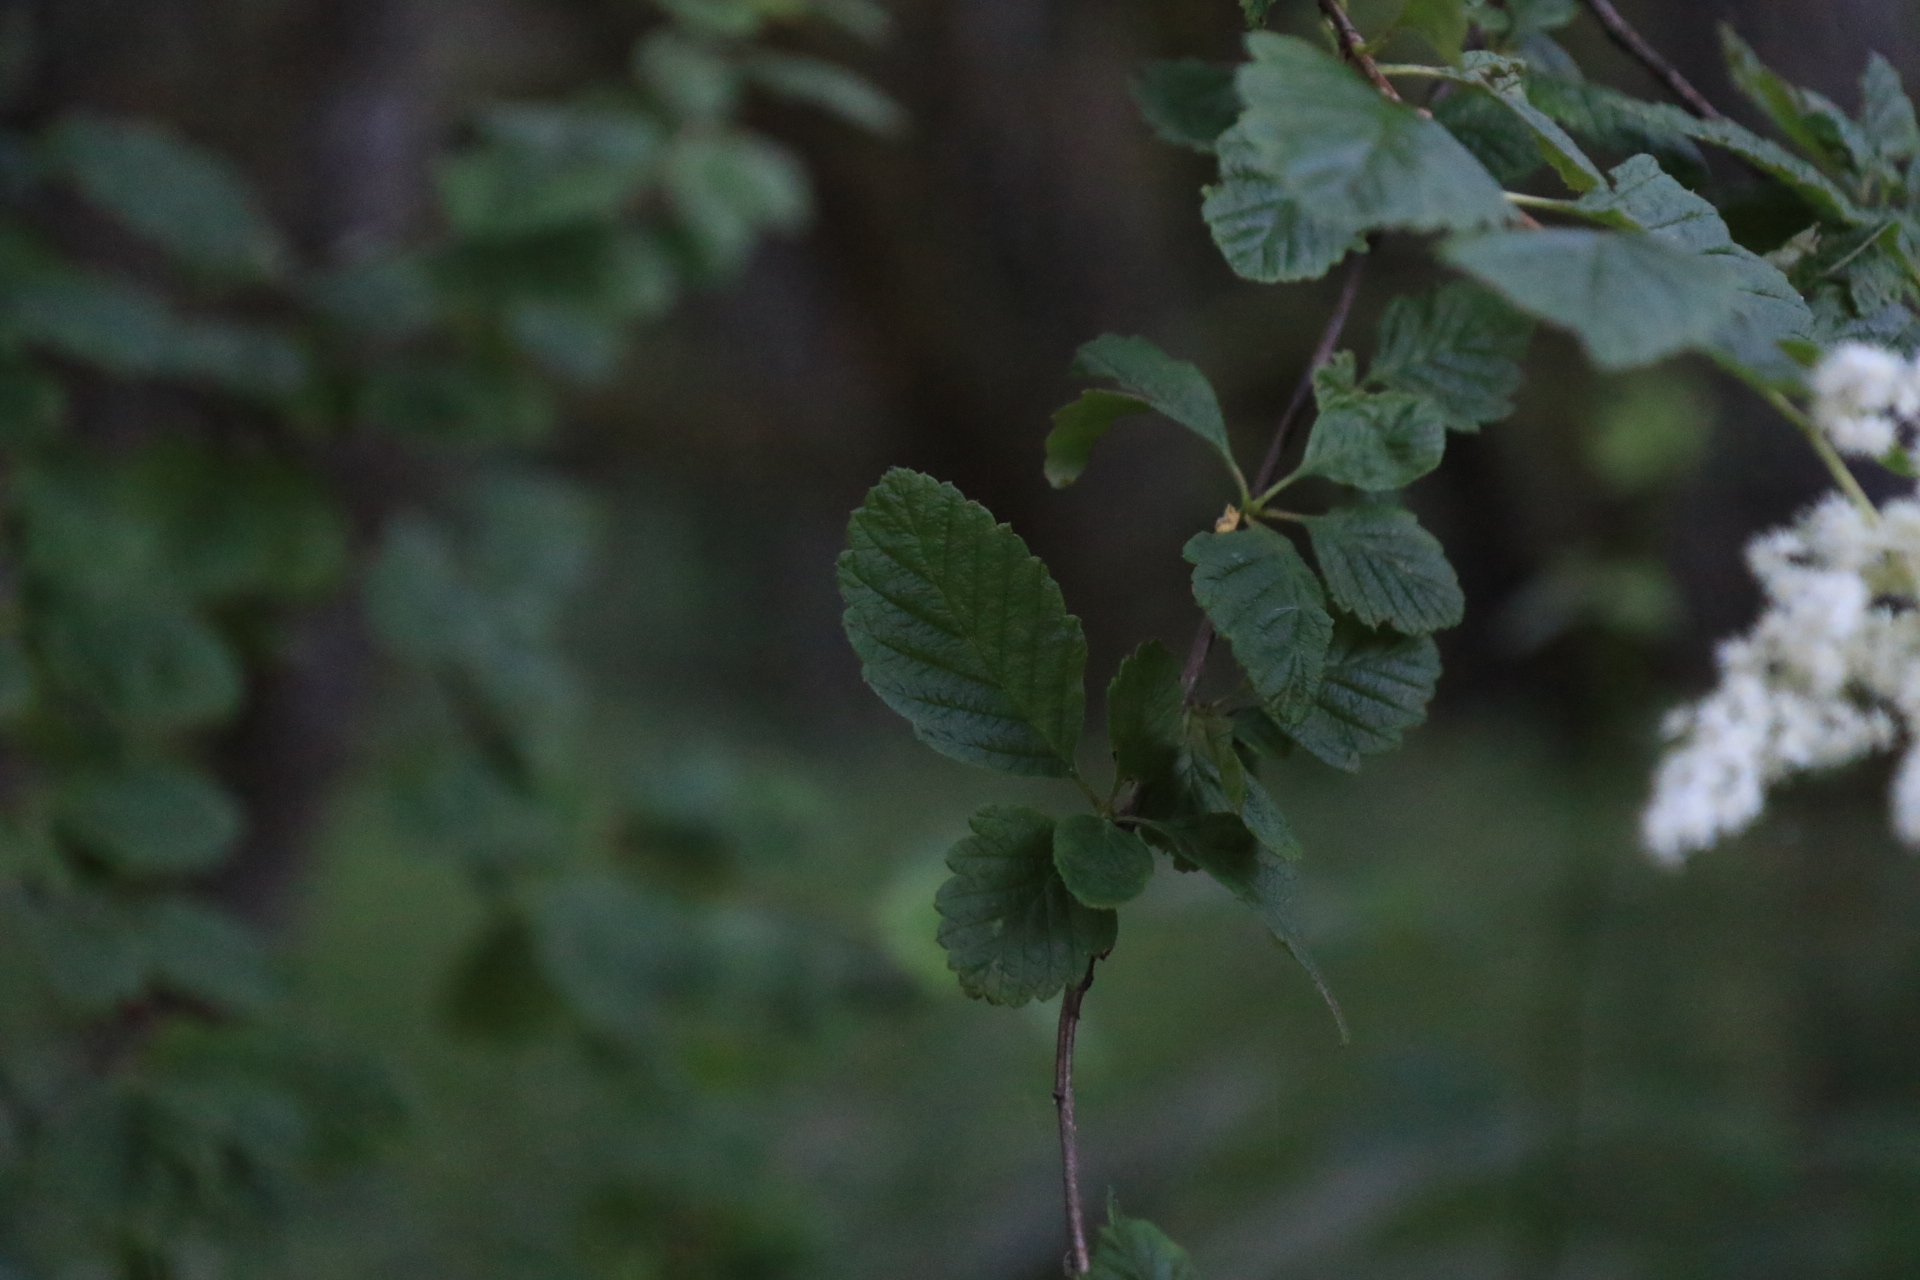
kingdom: Plantae
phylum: Tracheophyta
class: Magnoliopsida
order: Rosales
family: Rosaceae
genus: Holodiscus
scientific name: Holodiscus discolor
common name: Oceanspray
